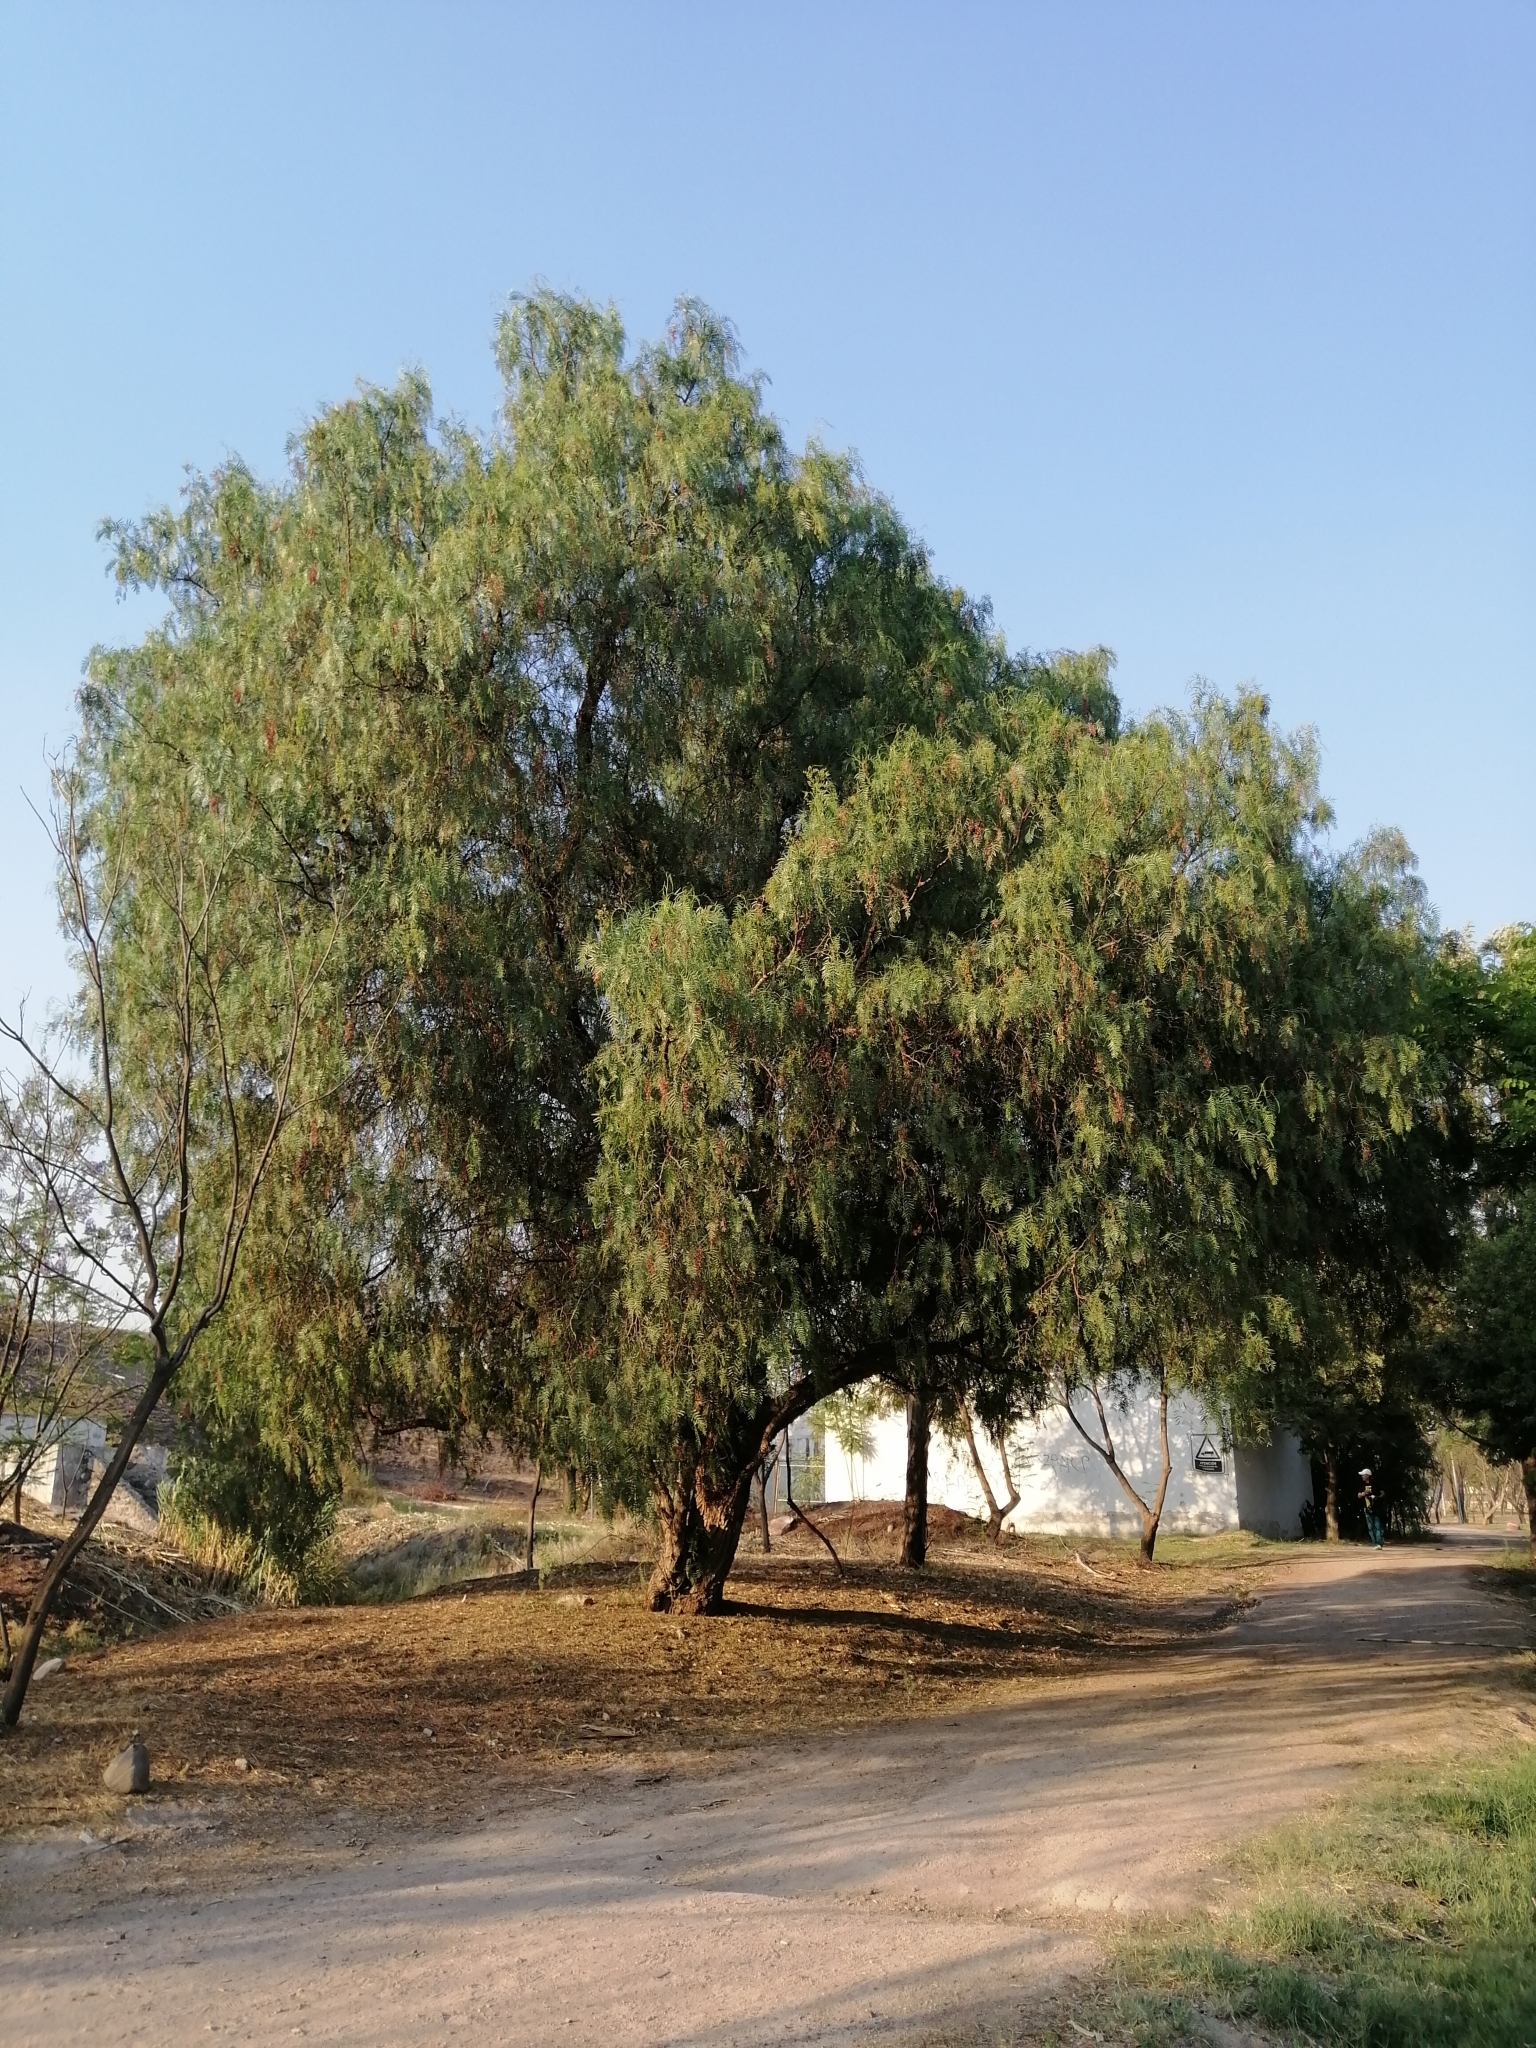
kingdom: Plantae
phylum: Tracheophyta
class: Magnoliopsida
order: Sapindales
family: Anacardiaceae
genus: Schinus
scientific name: Schinus molle
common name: Peruvian peppertree
